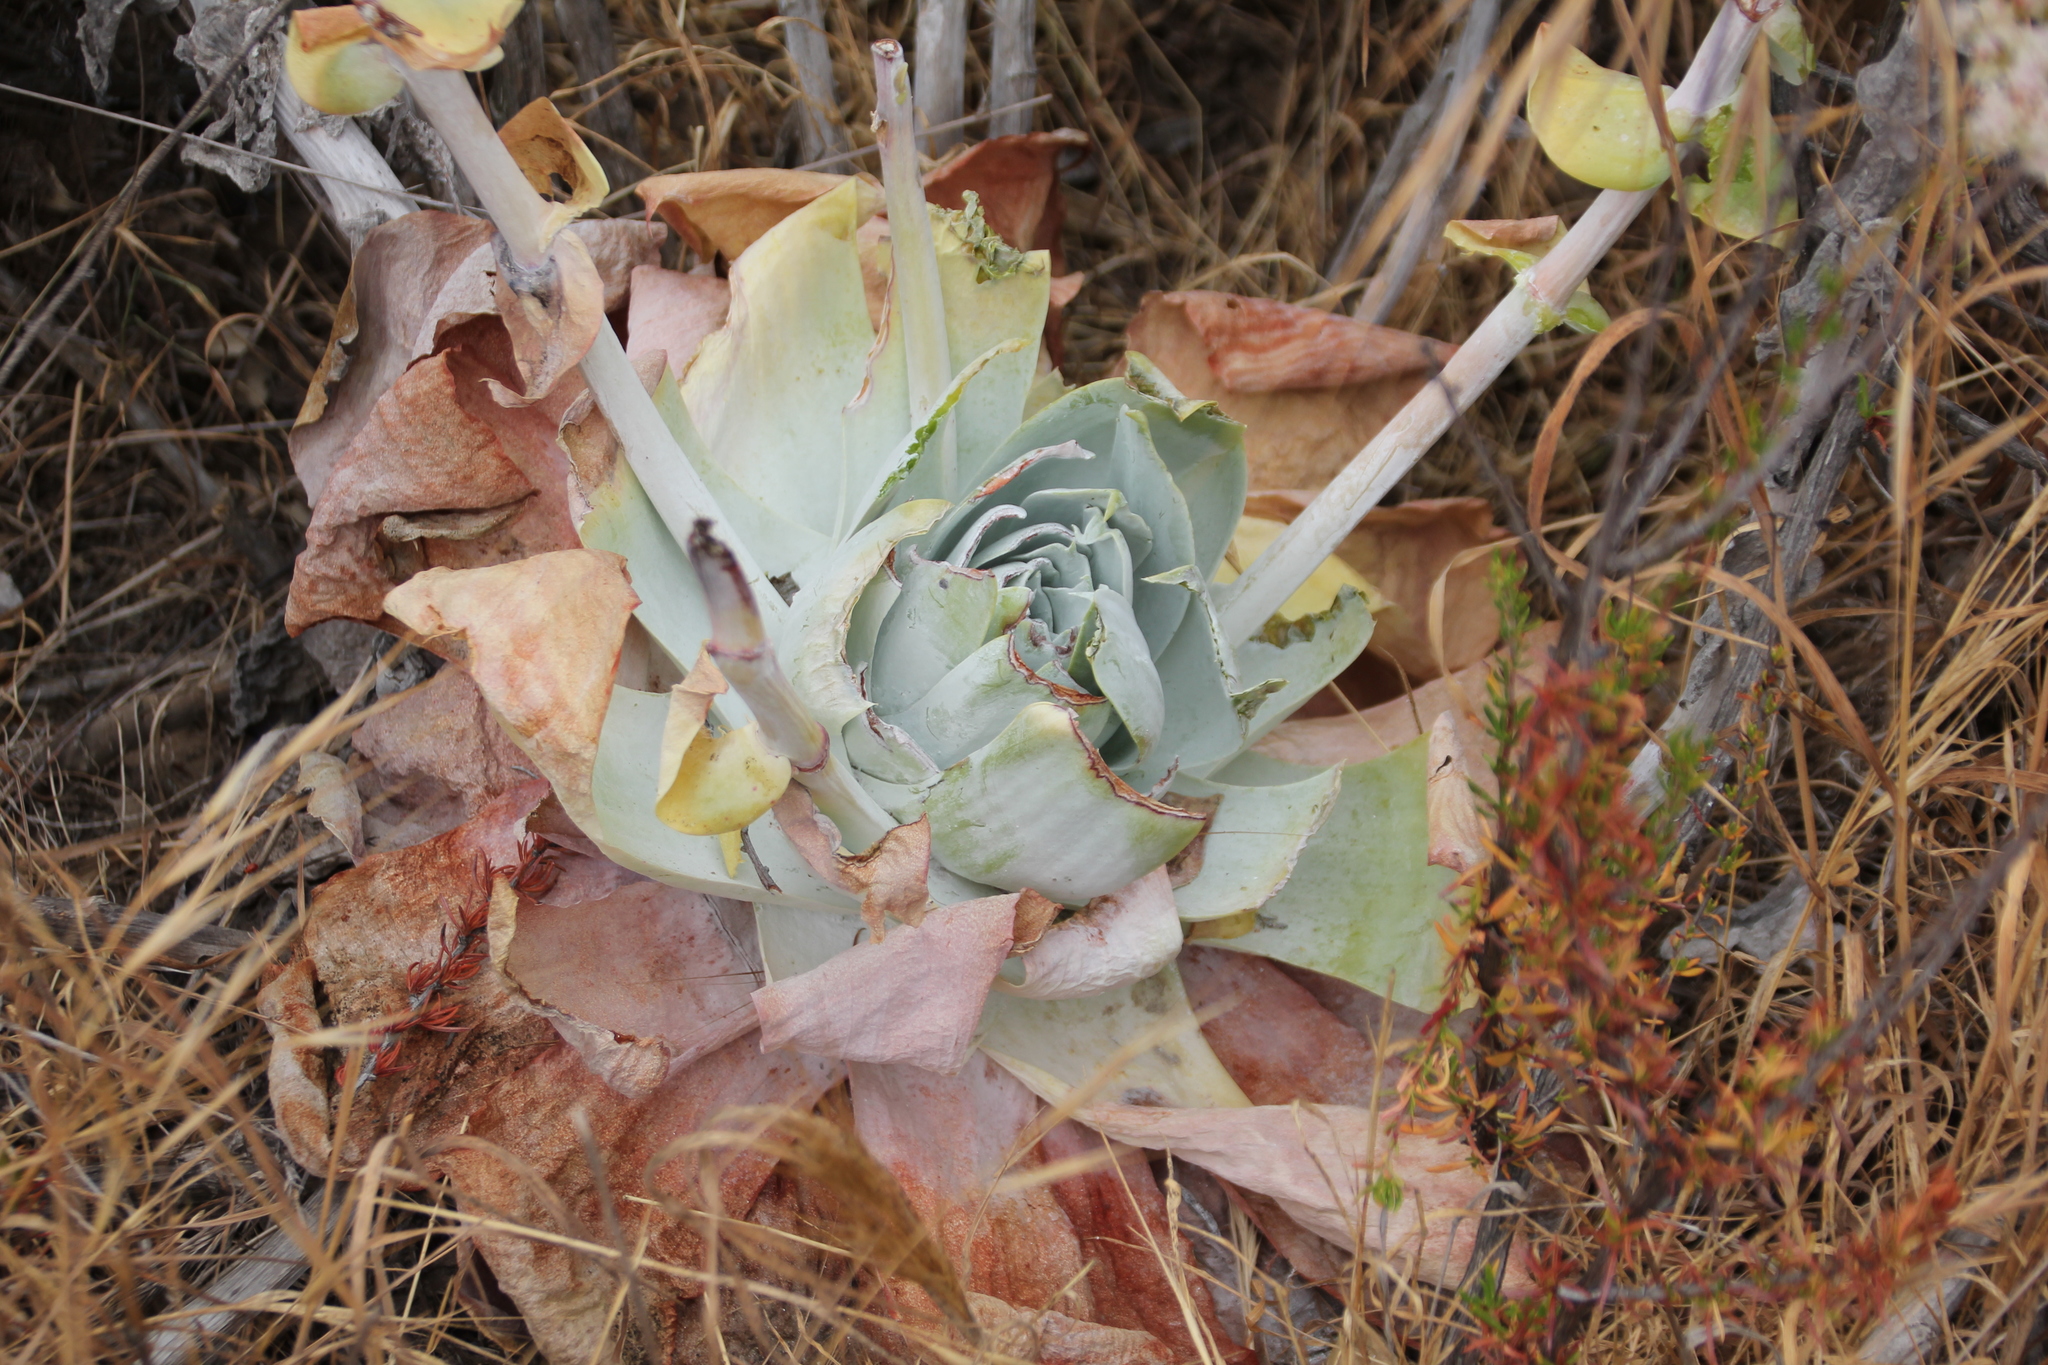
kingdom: Plantae
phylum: Tracheophyta
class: Magnoliopsida
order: Saxifragales
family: Crassulaceae
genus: Dudleya
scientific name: Dudleya pulverulenta
